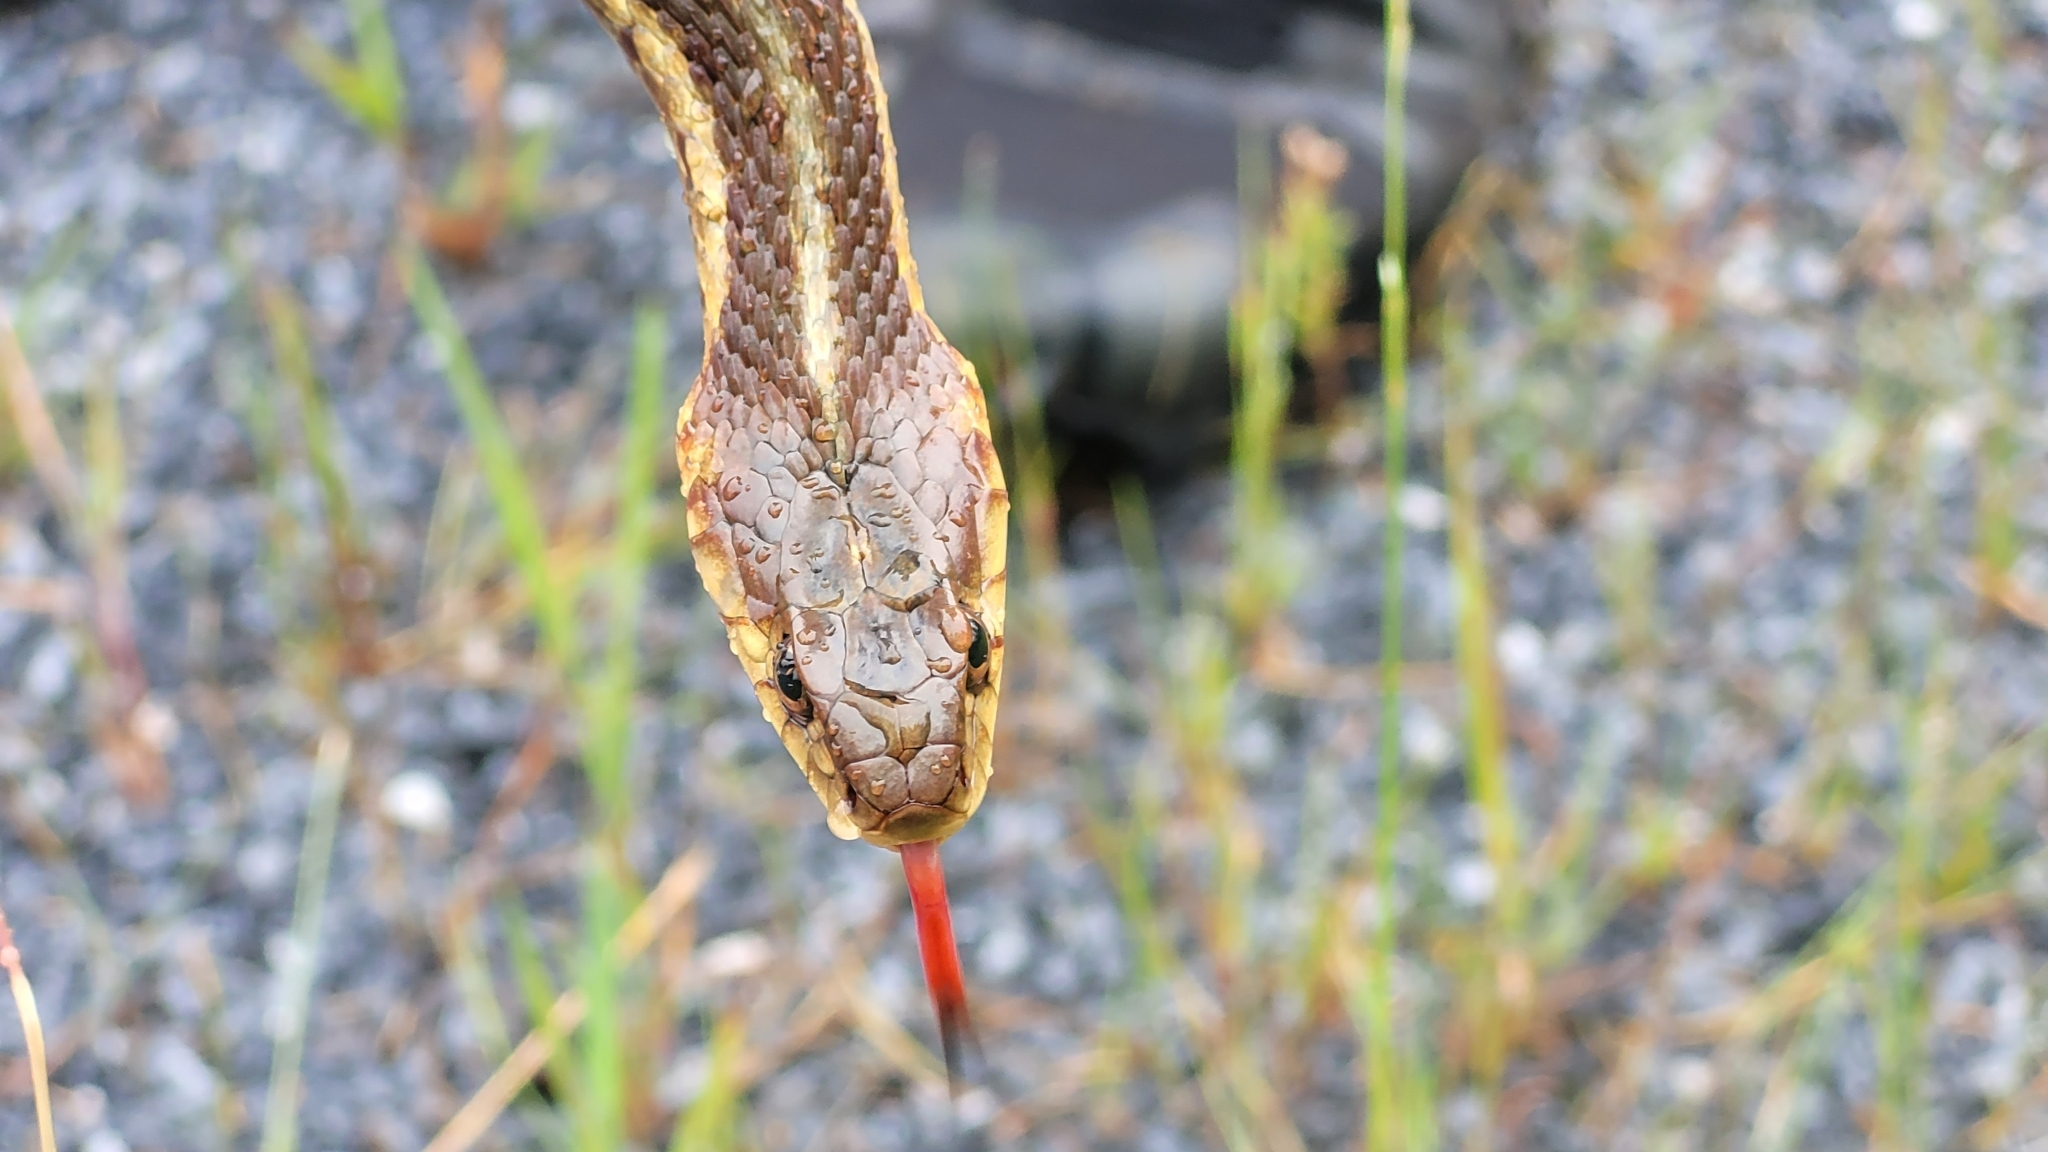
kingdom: Animalia
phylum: Chordata
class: Squamata
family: Colubridae
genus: Thamnophis
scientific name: Thamnophis sirtalis
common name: Common garter snake
